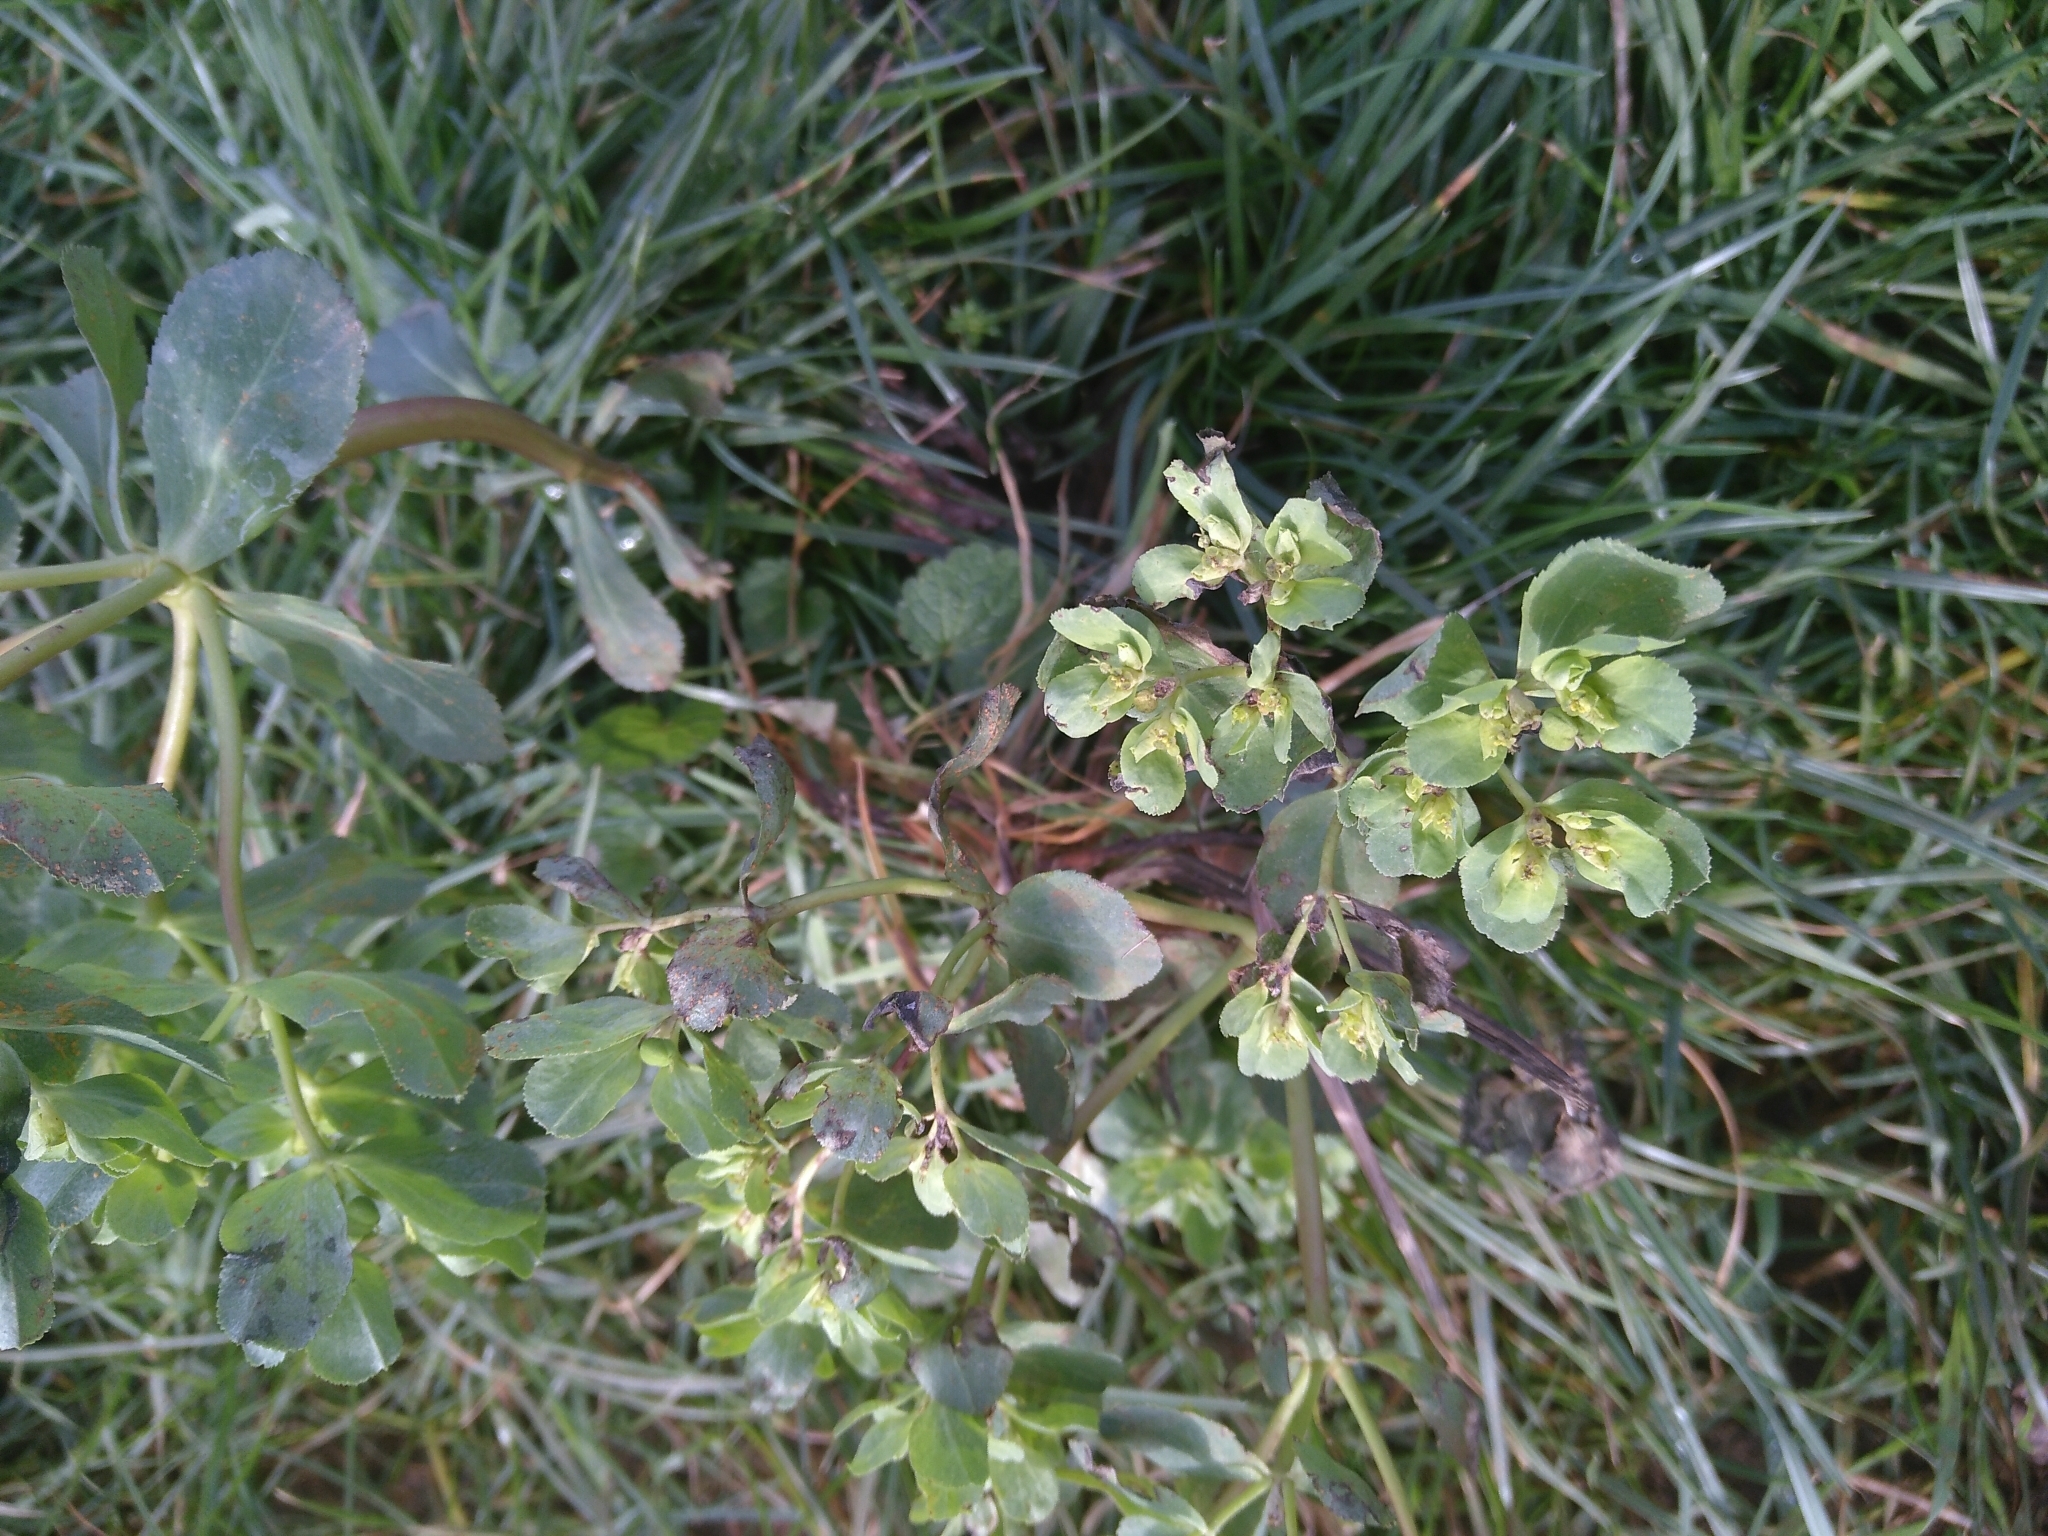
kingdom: Plantae
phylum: Tracheophyta
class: Magnoliopsida
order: Malpighiales
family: Euphorbiaceae
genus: Euphorbia
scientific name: Euphorbia helioscopia
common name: Sun spurge
